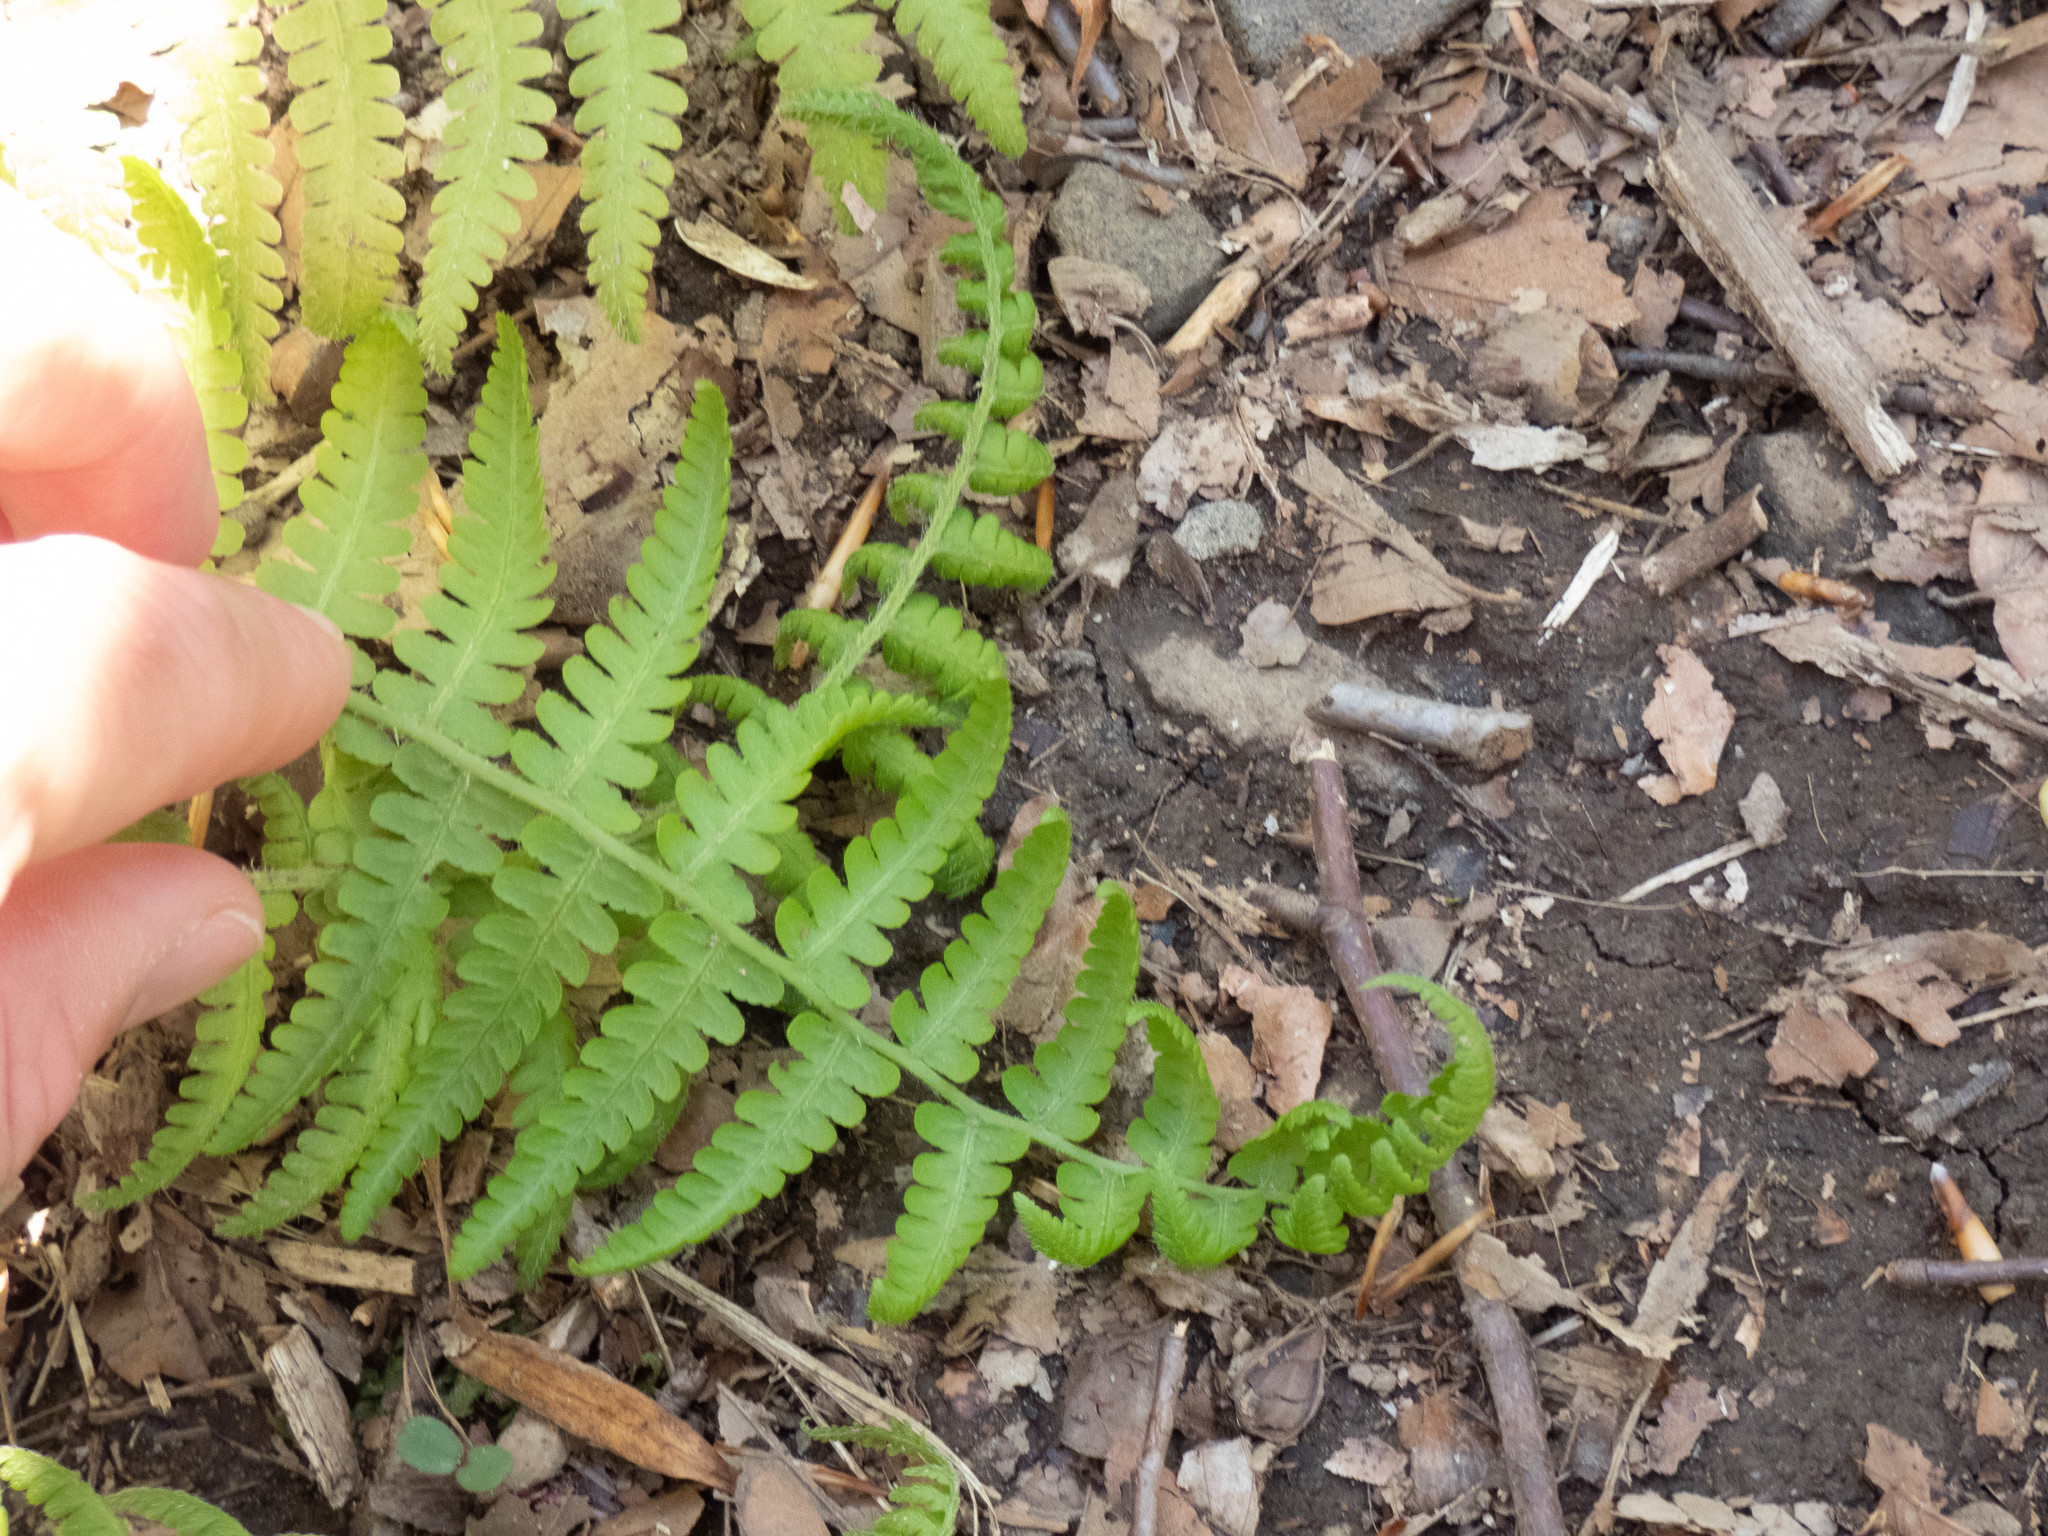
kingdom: Plantae
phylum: Tracheophyta
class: Polypodiopsida
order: Polypodiales
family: Athyriaceae
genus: Deparia
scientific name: Deparia acrostichoides
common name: Silver false spleenwort
